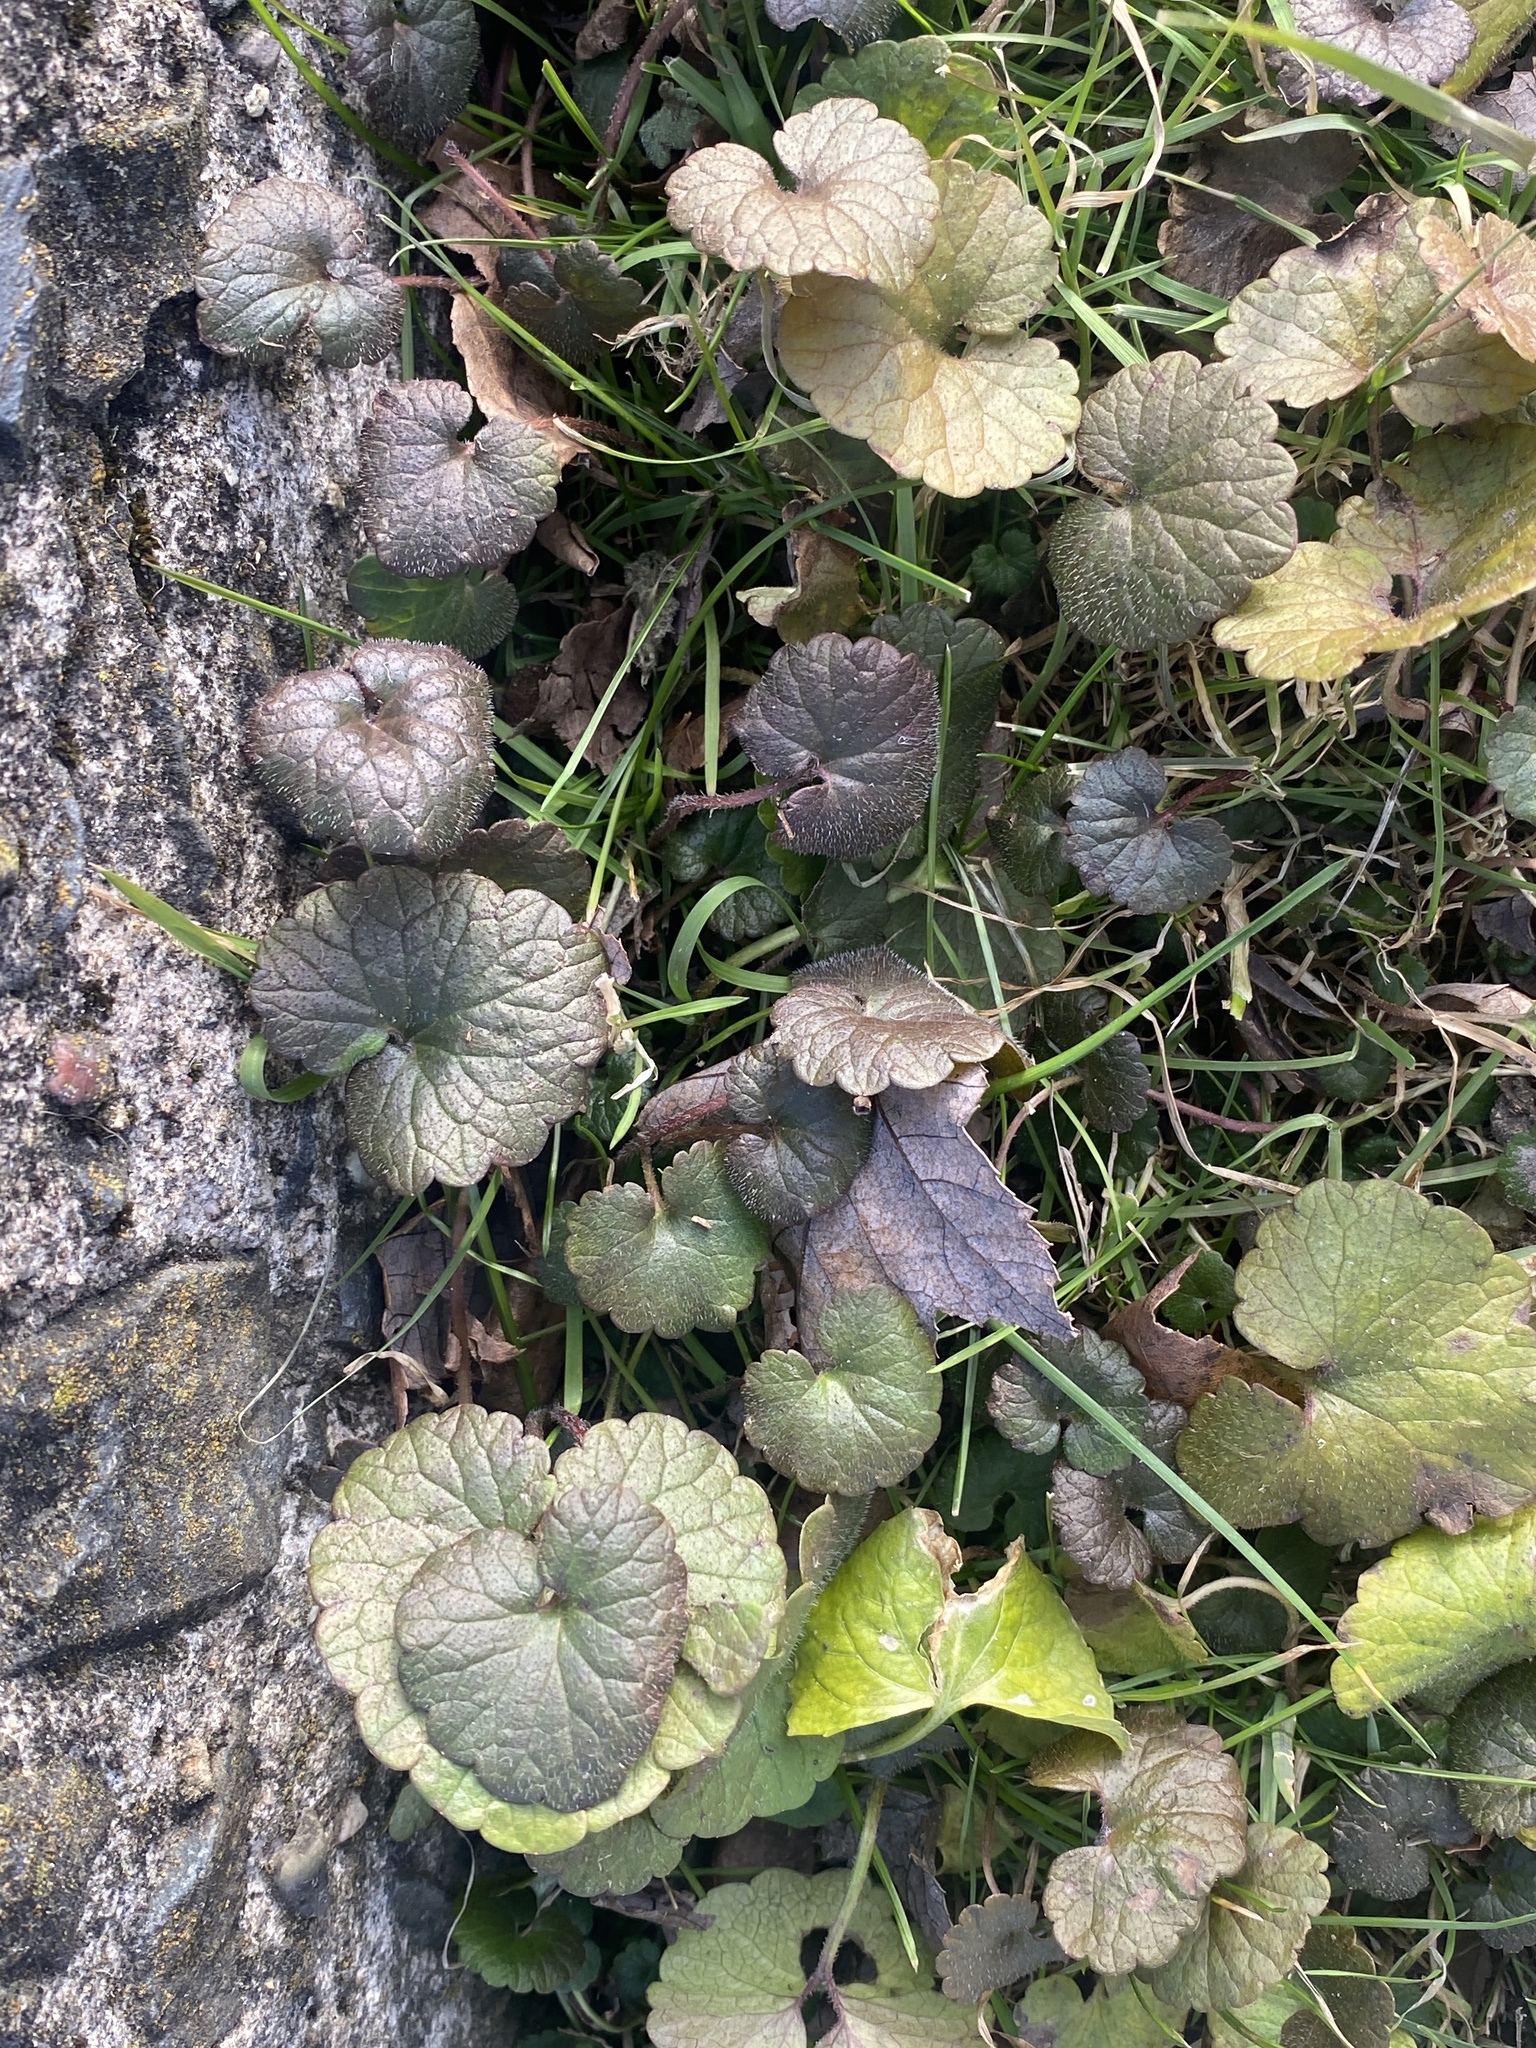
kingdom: Plantae
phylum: Tracheophyta
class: Magnoliopsida
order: Lamiales
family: Lamiaceae
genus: Glechoma
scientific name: Glechoma hederacea
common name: Ground ivy
